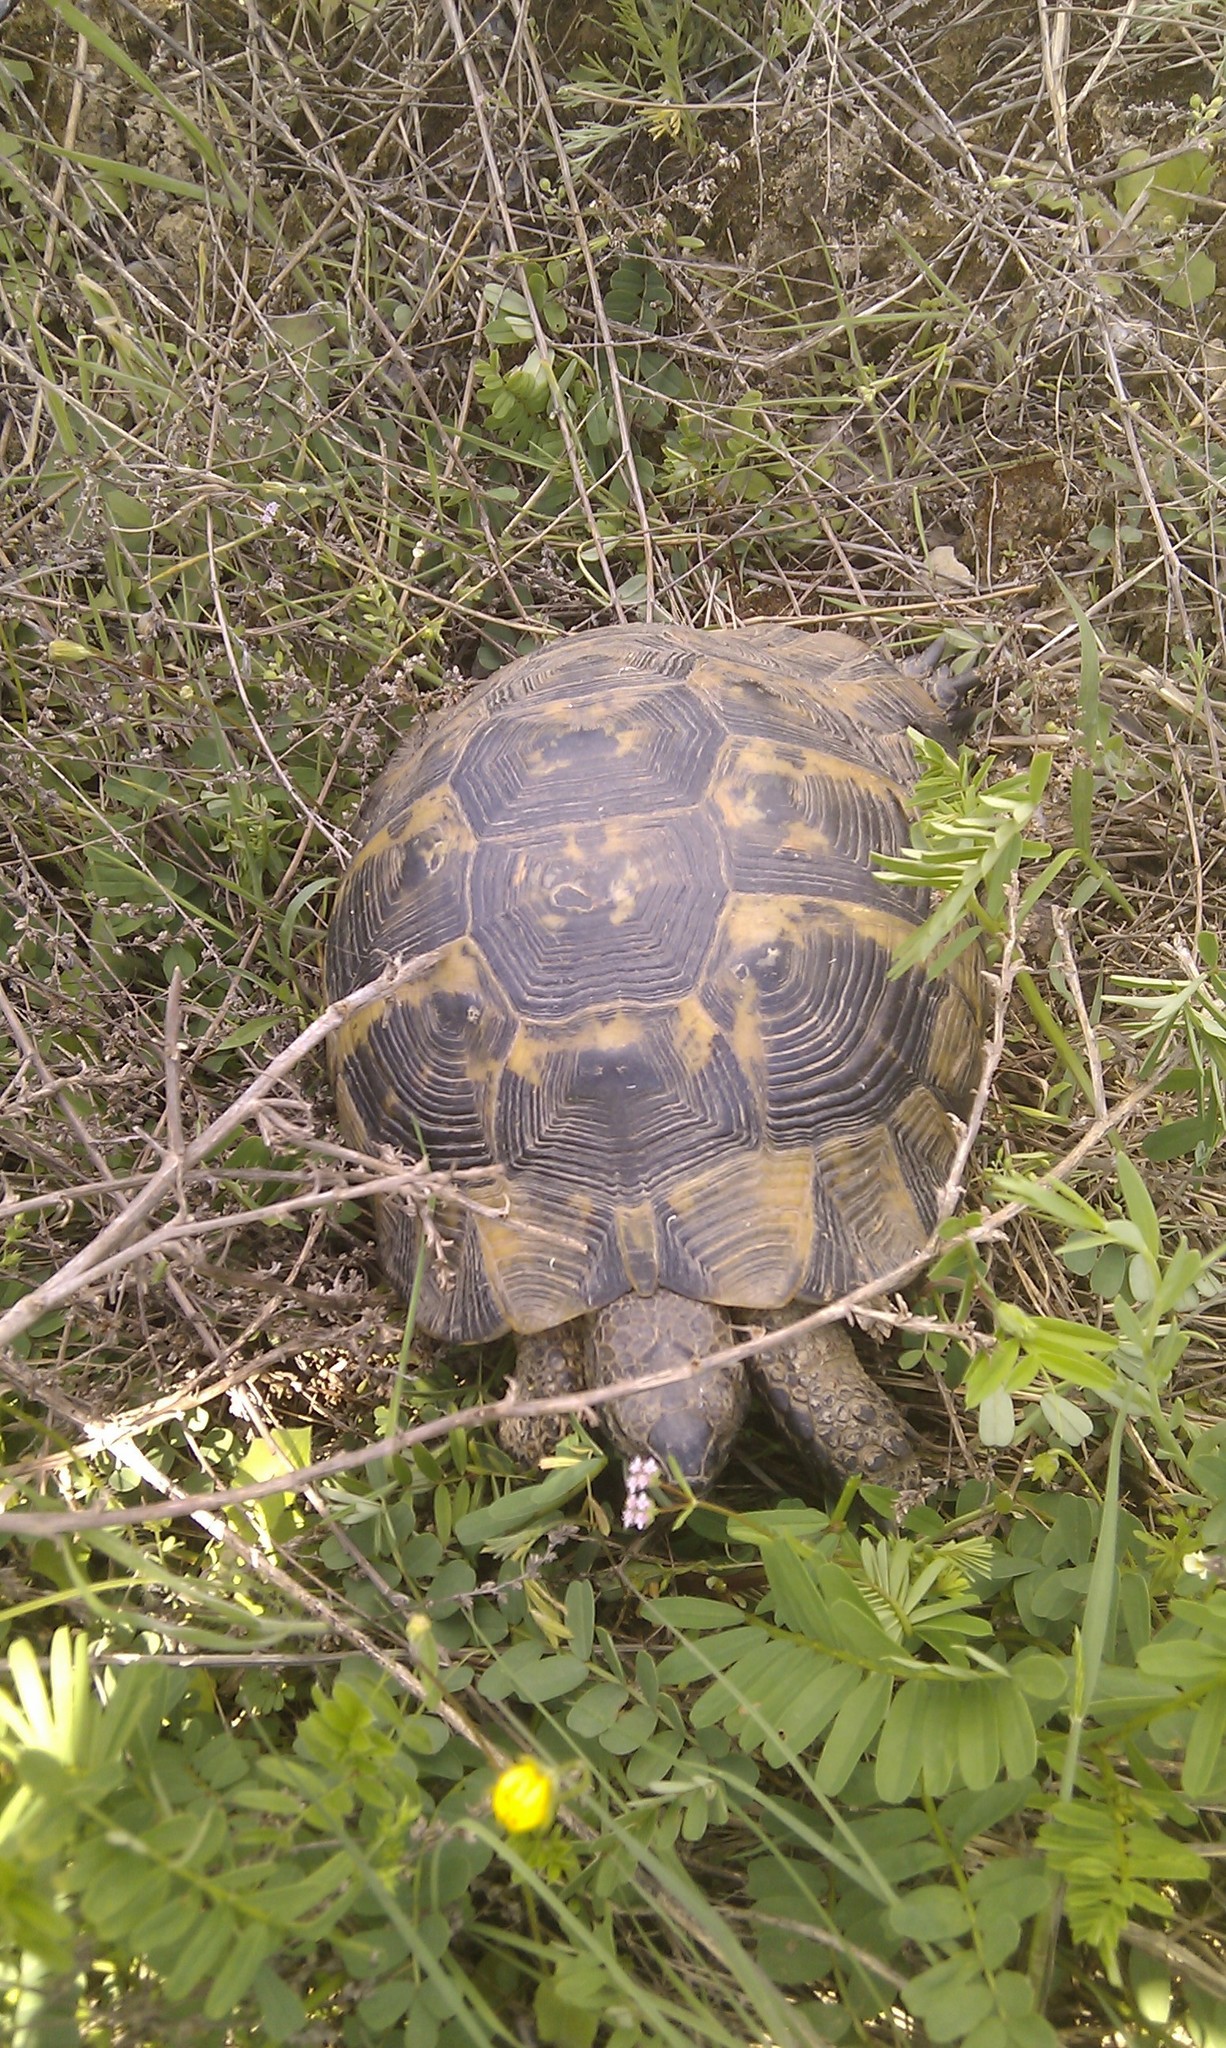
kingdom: Animalia
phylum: Chordata
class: Testudines
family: Testudinidae
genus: Testudo
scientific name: Testudo graeca
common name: Common tortoise
